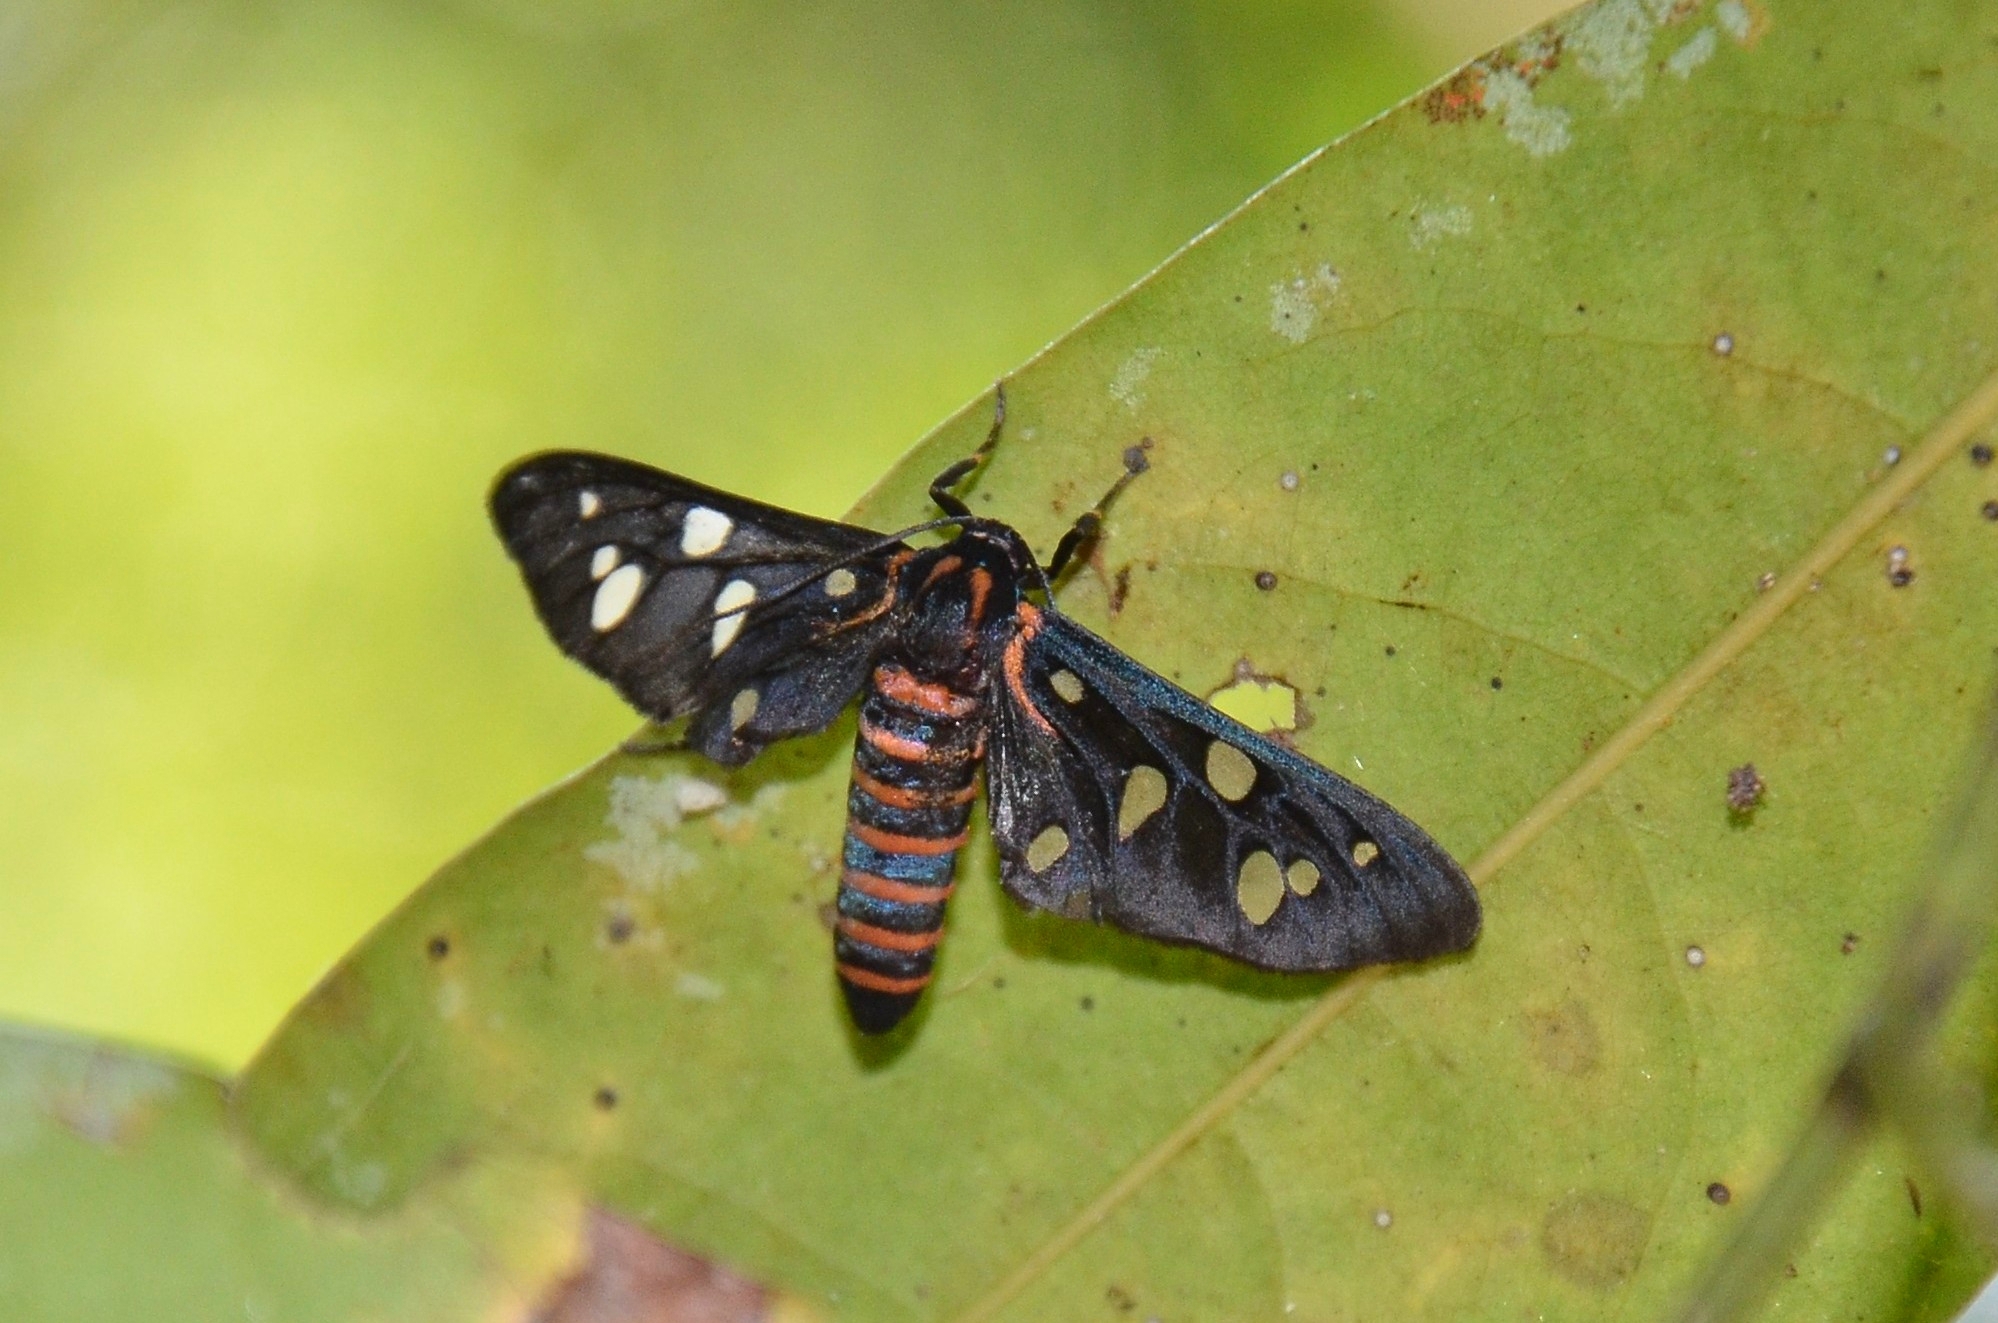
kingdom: Animalia
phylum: Arthropoda
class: Insecta
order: Lepidoptera
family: Erebidae
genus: Amata
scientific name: Amata passalis
